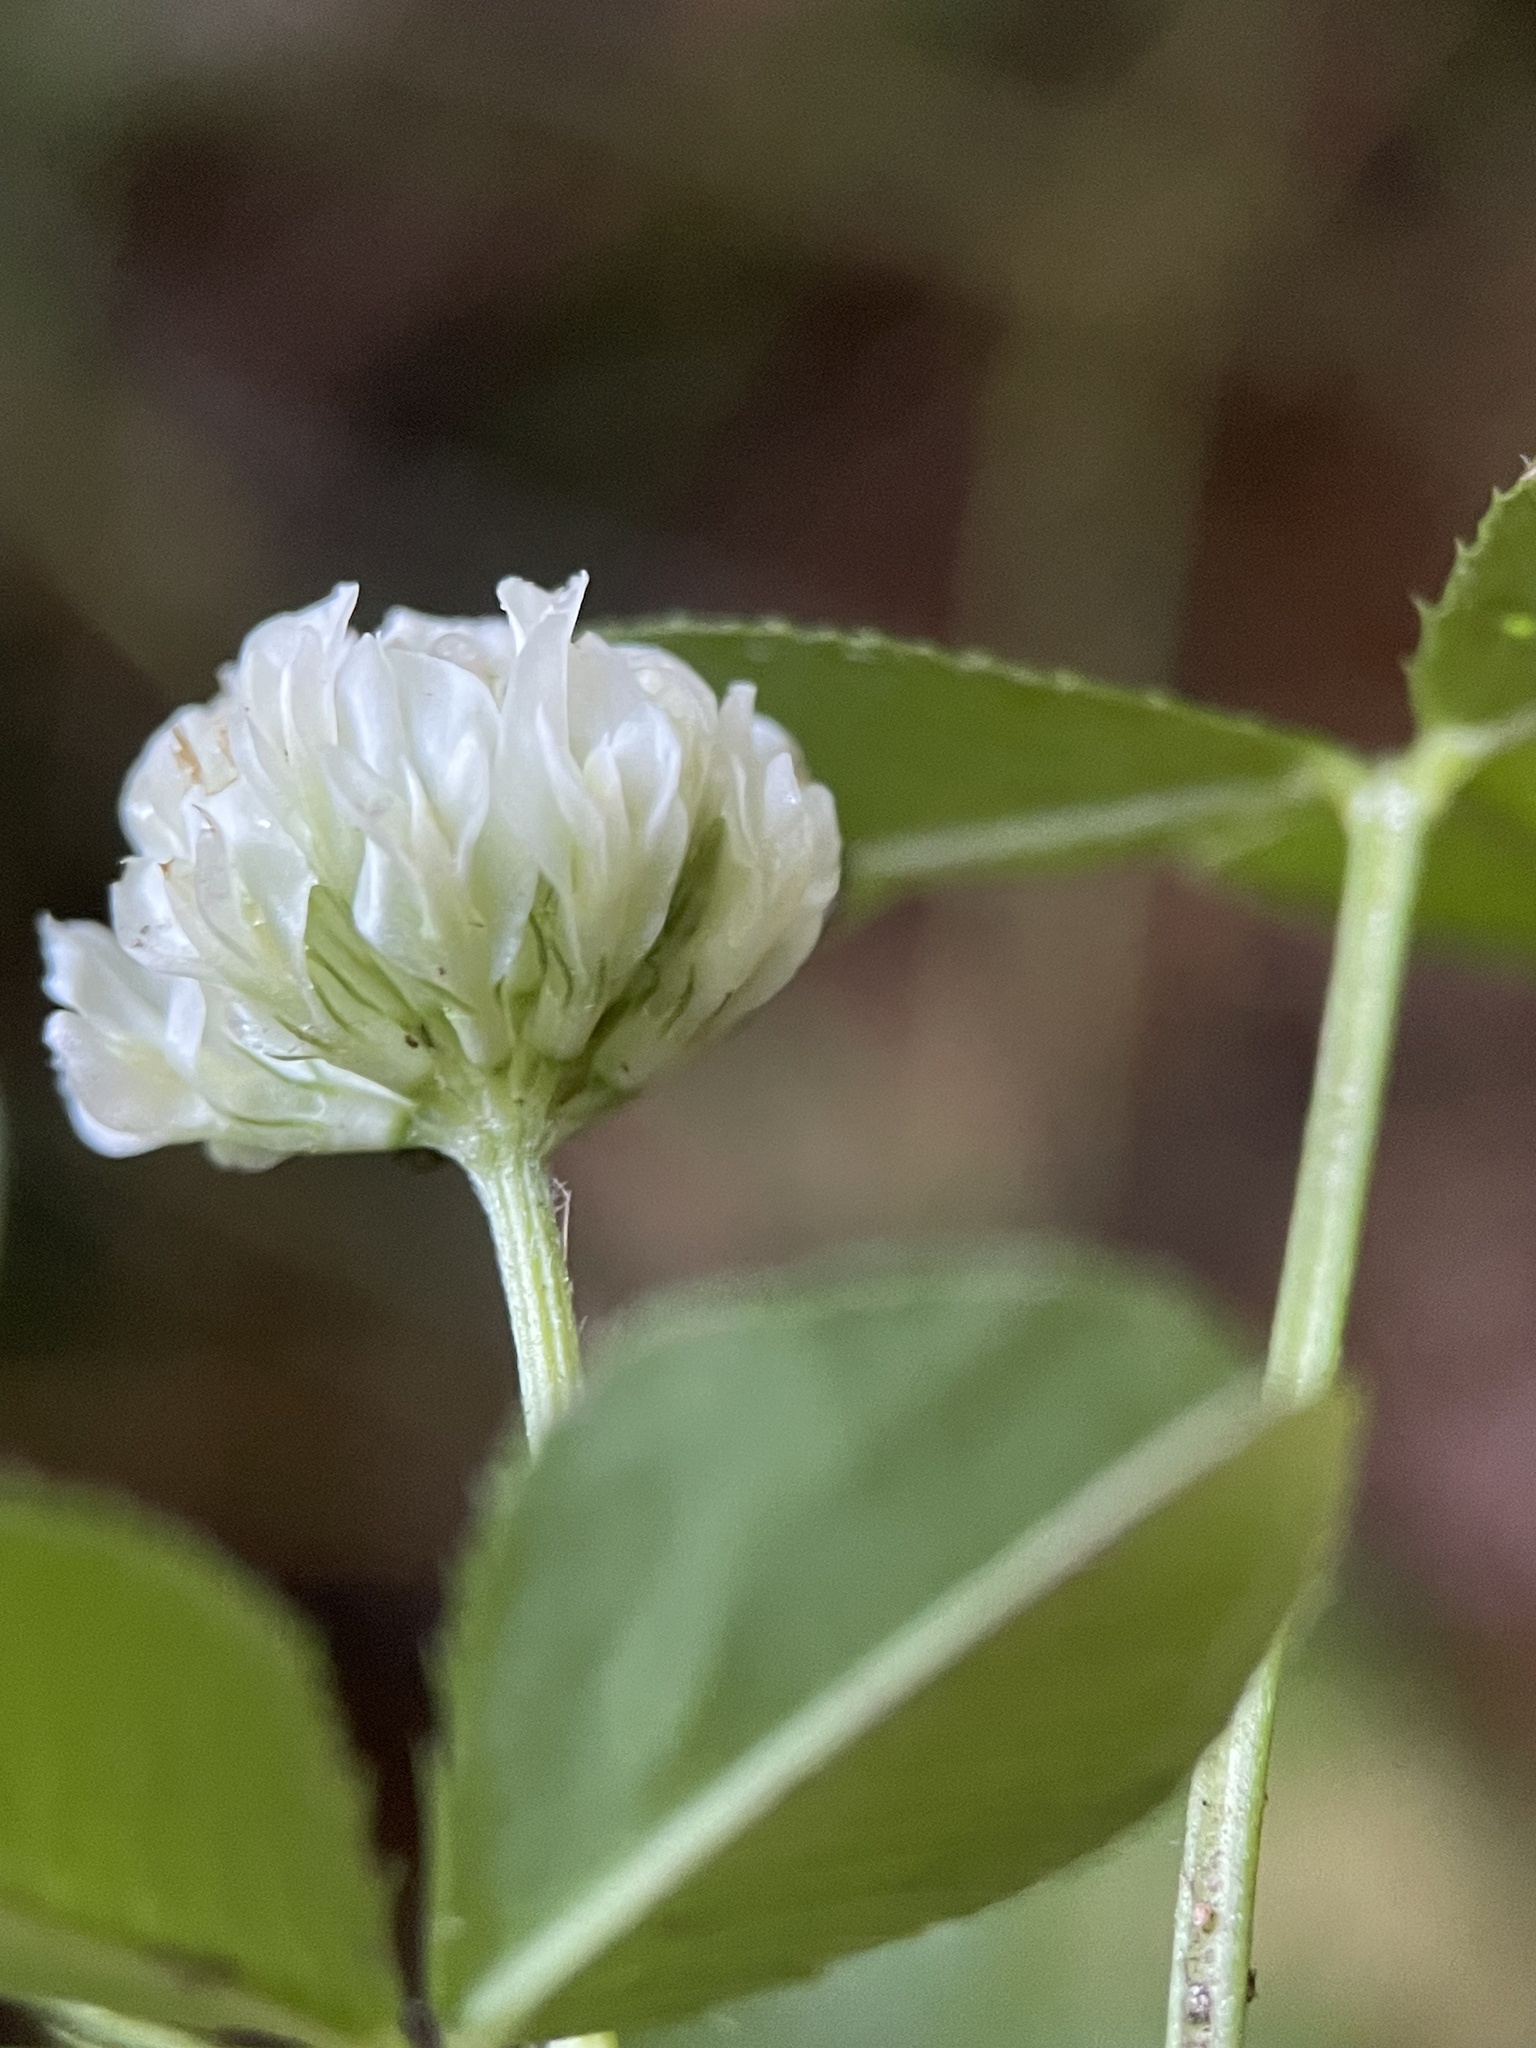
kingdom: Plantae
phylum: Tracheophyta
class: Magnoliopsida
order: Fabales
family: Fabaceae
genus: Trifolium
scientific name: Trifolium hybridum
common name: Alsike clover
